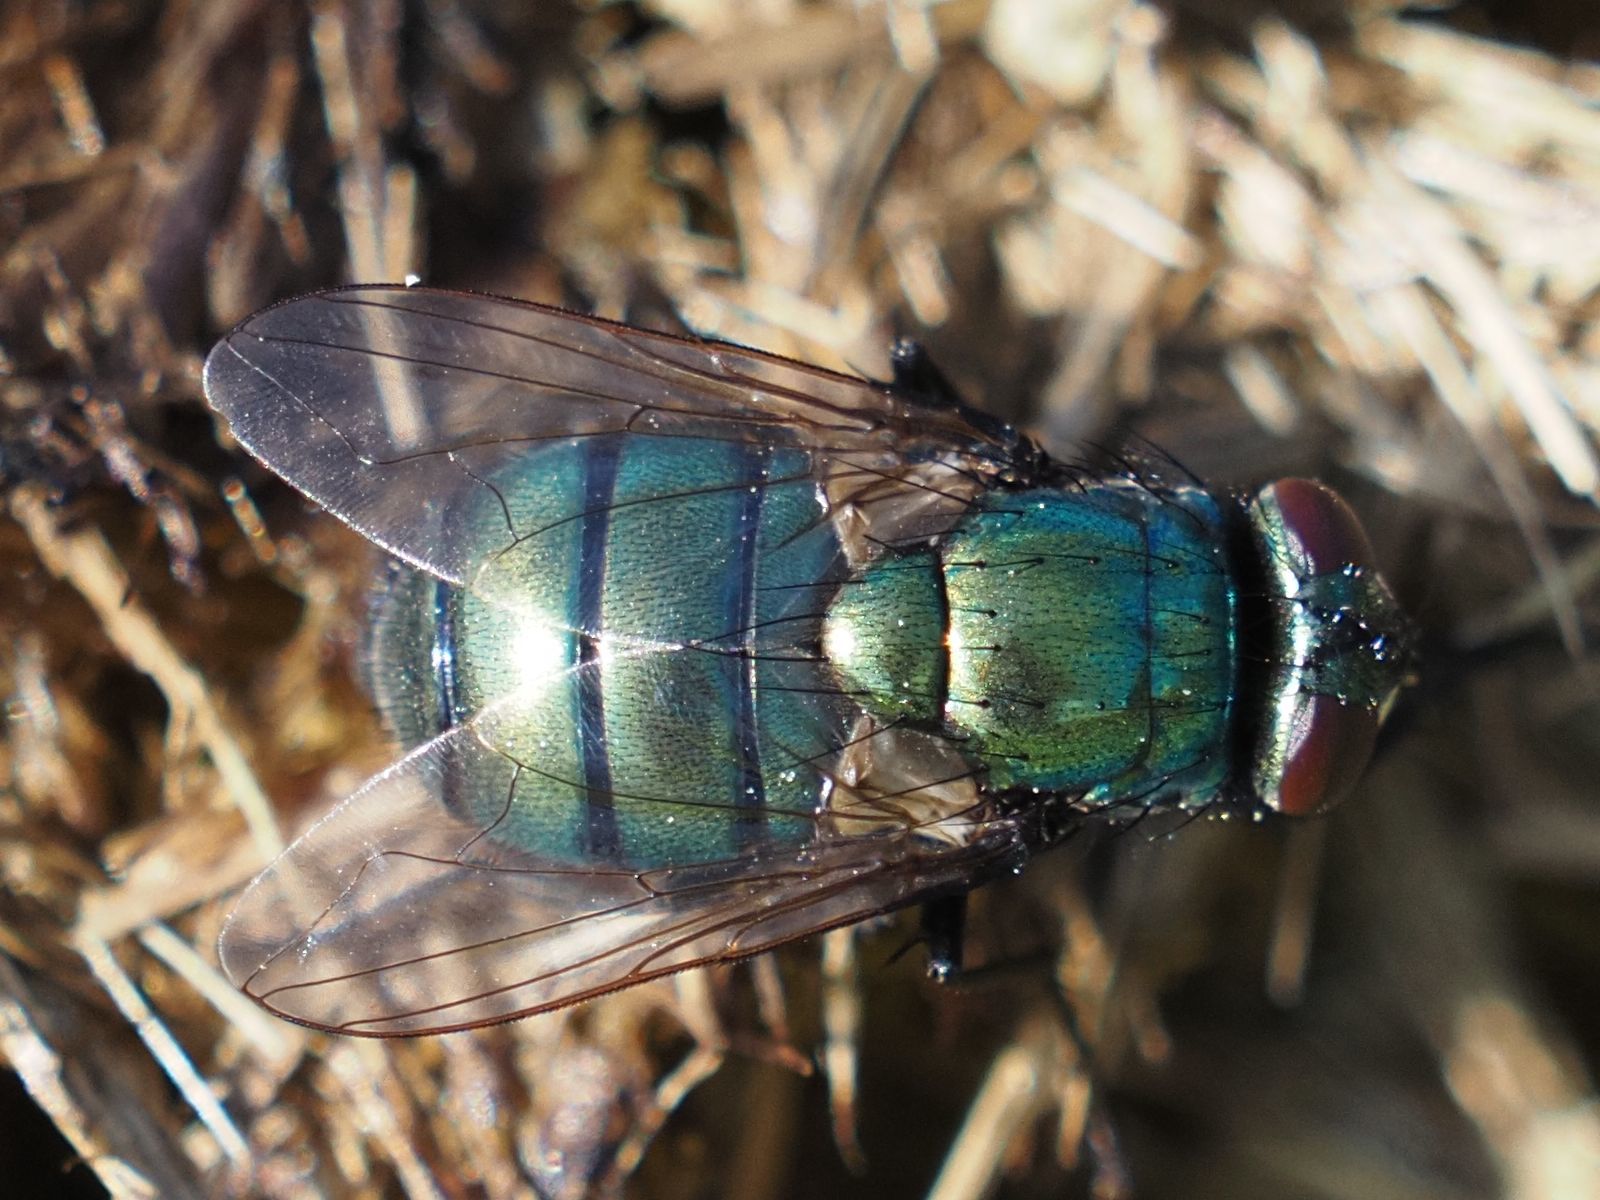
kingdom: Animalia
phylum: Arthropoda
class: Insecta
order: Diptera
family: Muscidae
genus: Neomyia
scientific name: Neomyia cornicina
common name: House fly
